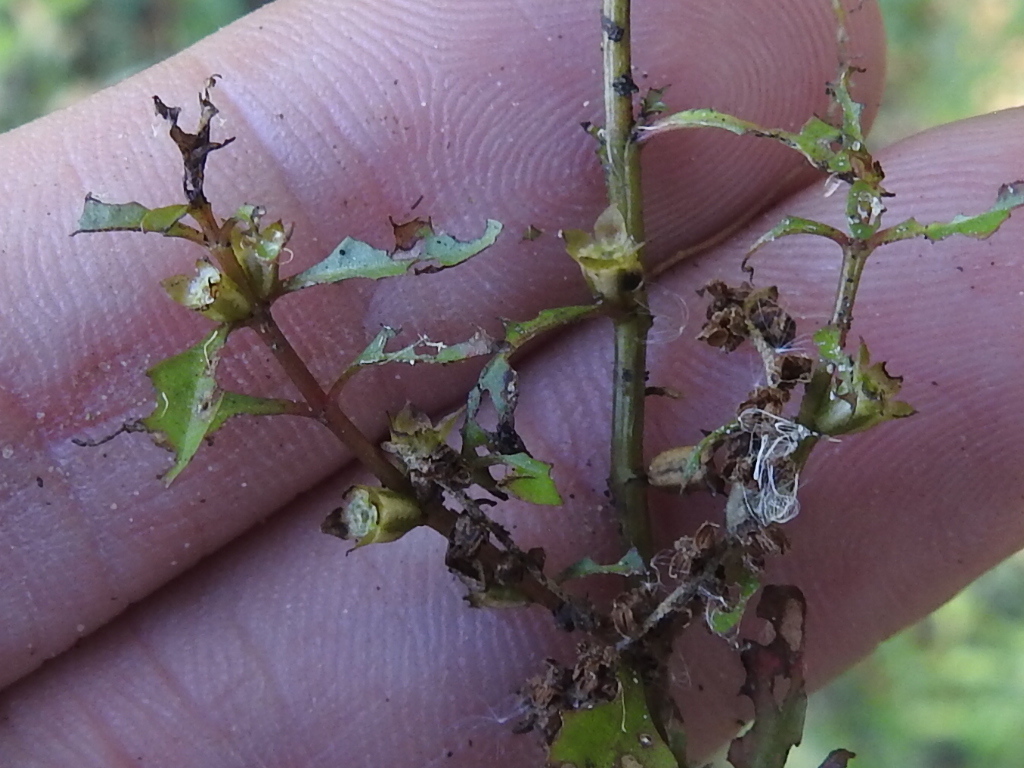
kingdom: Plantae
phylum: Tracheophyta
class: Magnoliopsida
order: Myrtales
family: Onagraceae
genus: Ludwigia
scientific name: Ludwigia palustris
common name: Hampshire-purslane
